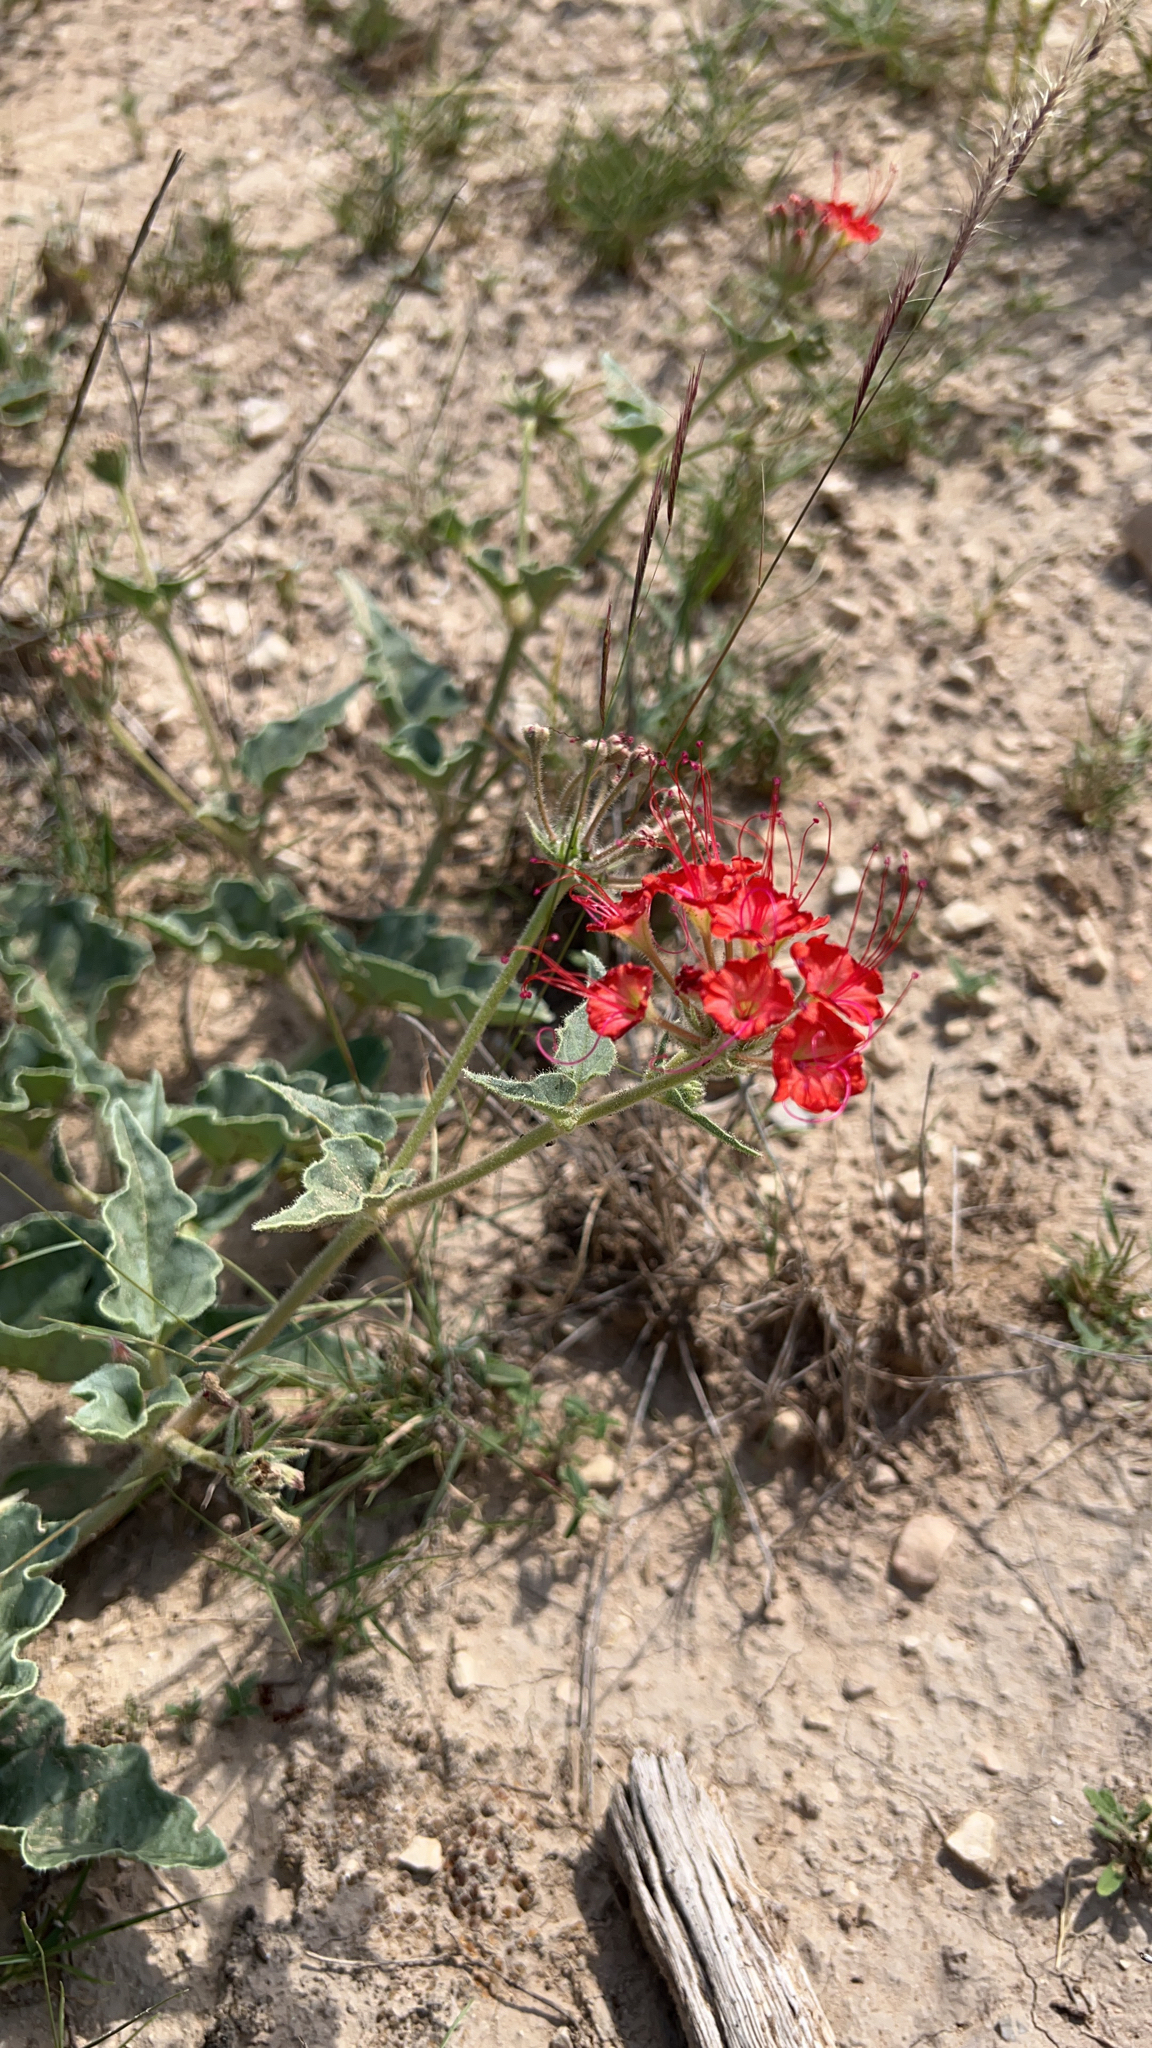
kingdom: Plantae
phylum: Tracheophyta
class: Magnoliopsida
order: Caryophyllales
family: Nyctaginaceae
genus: Nyctaginia
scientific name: Nyctaginia capitata
